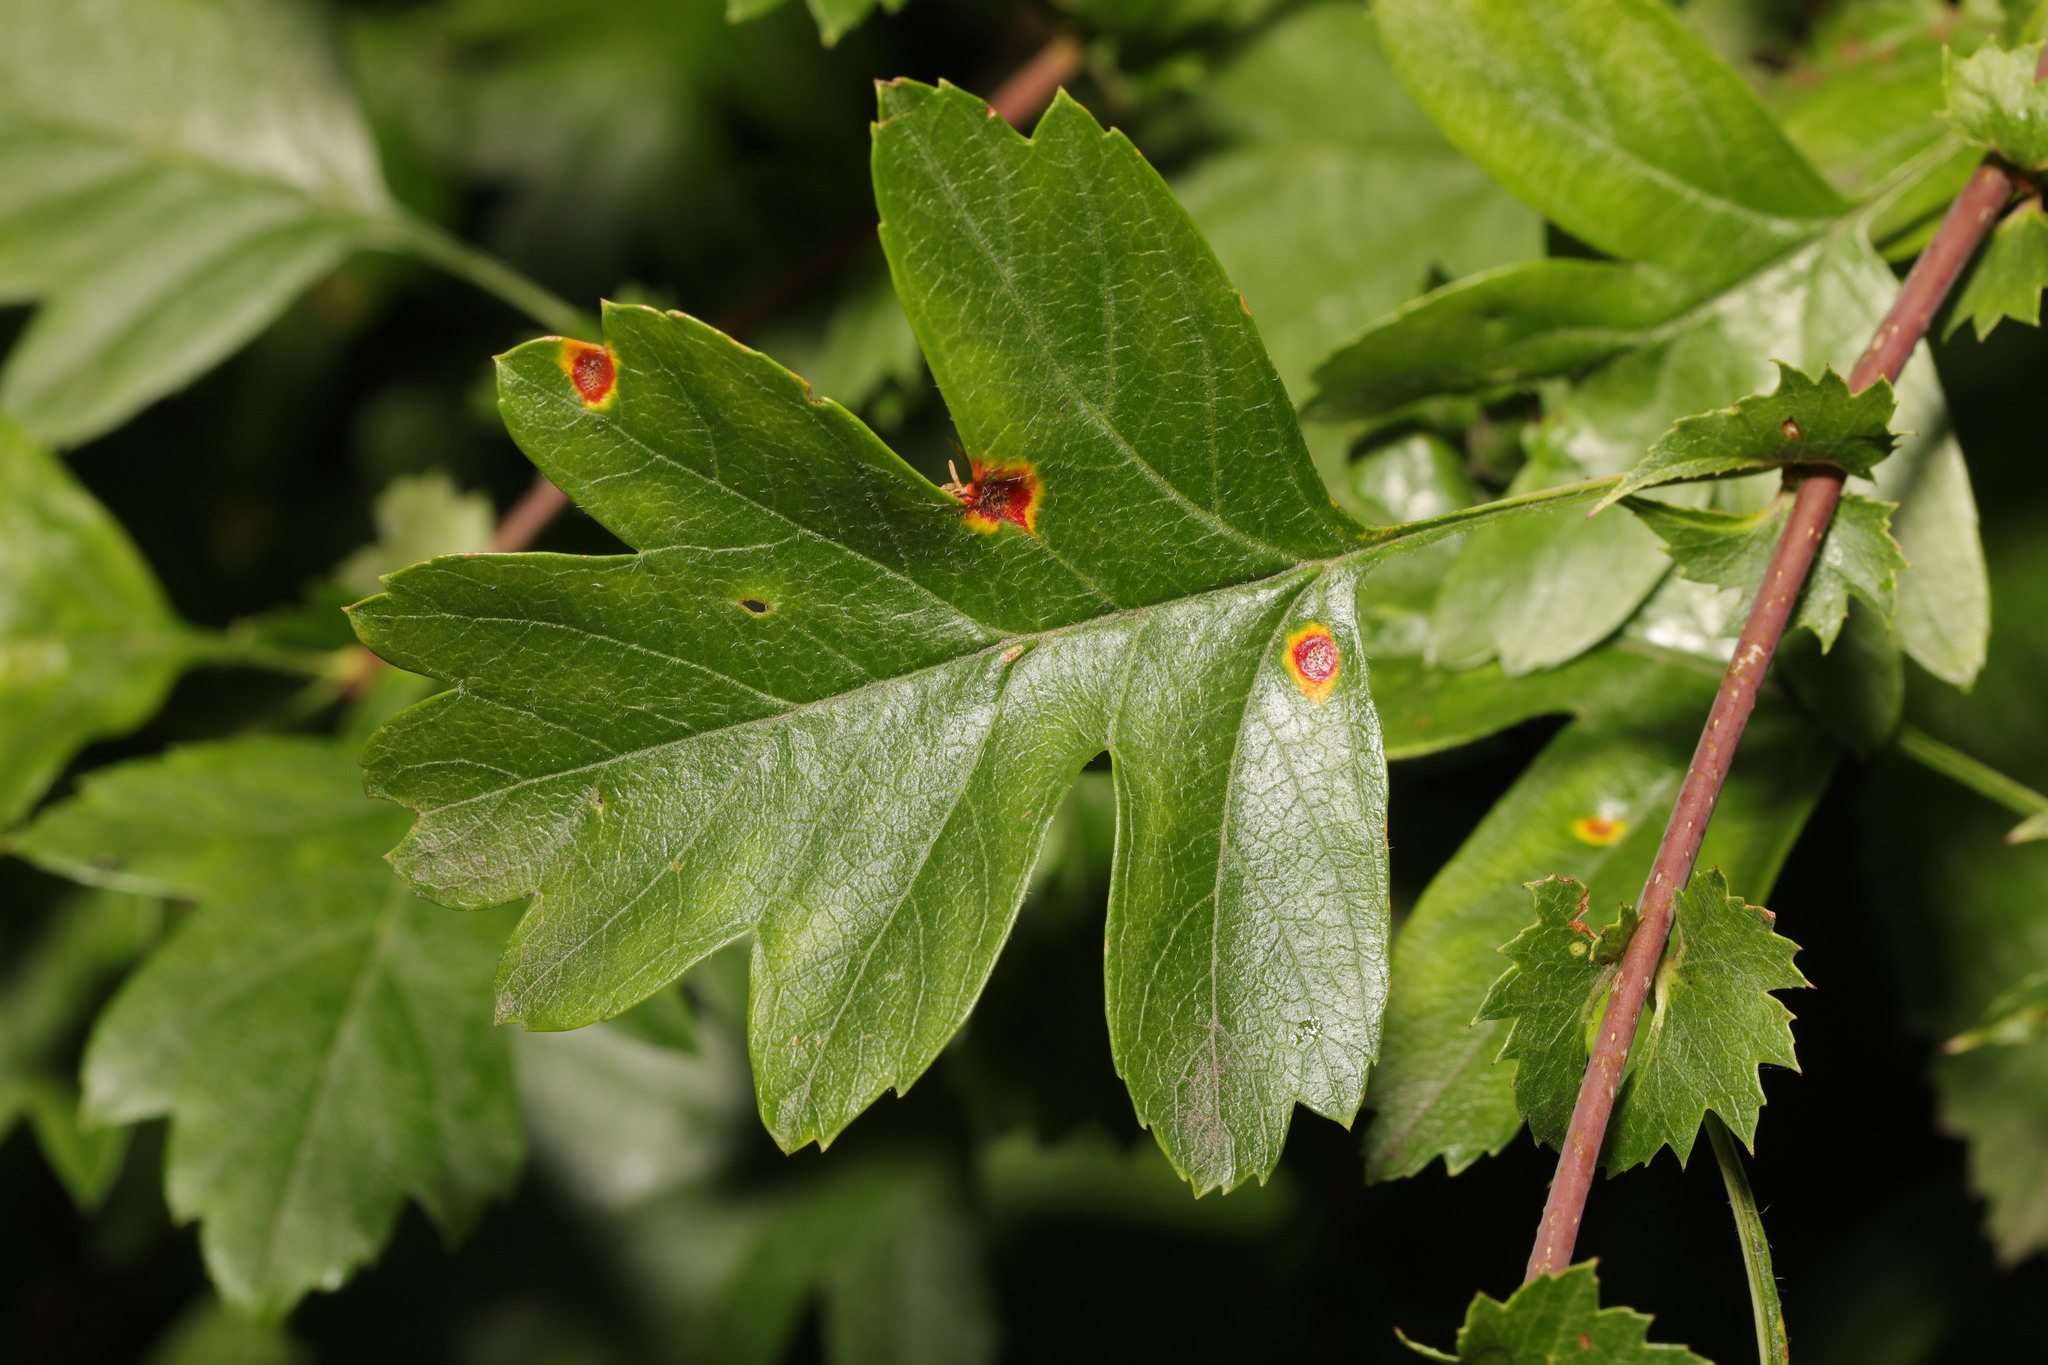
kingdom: Fungi
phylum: Basidiomycota
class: Pucciniomycetes
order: Pucciniales
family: Gymnosporangiaceae
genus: Gymnosporangium
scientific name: Gymnosporangium clavariiforme
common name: Tongues of fire
